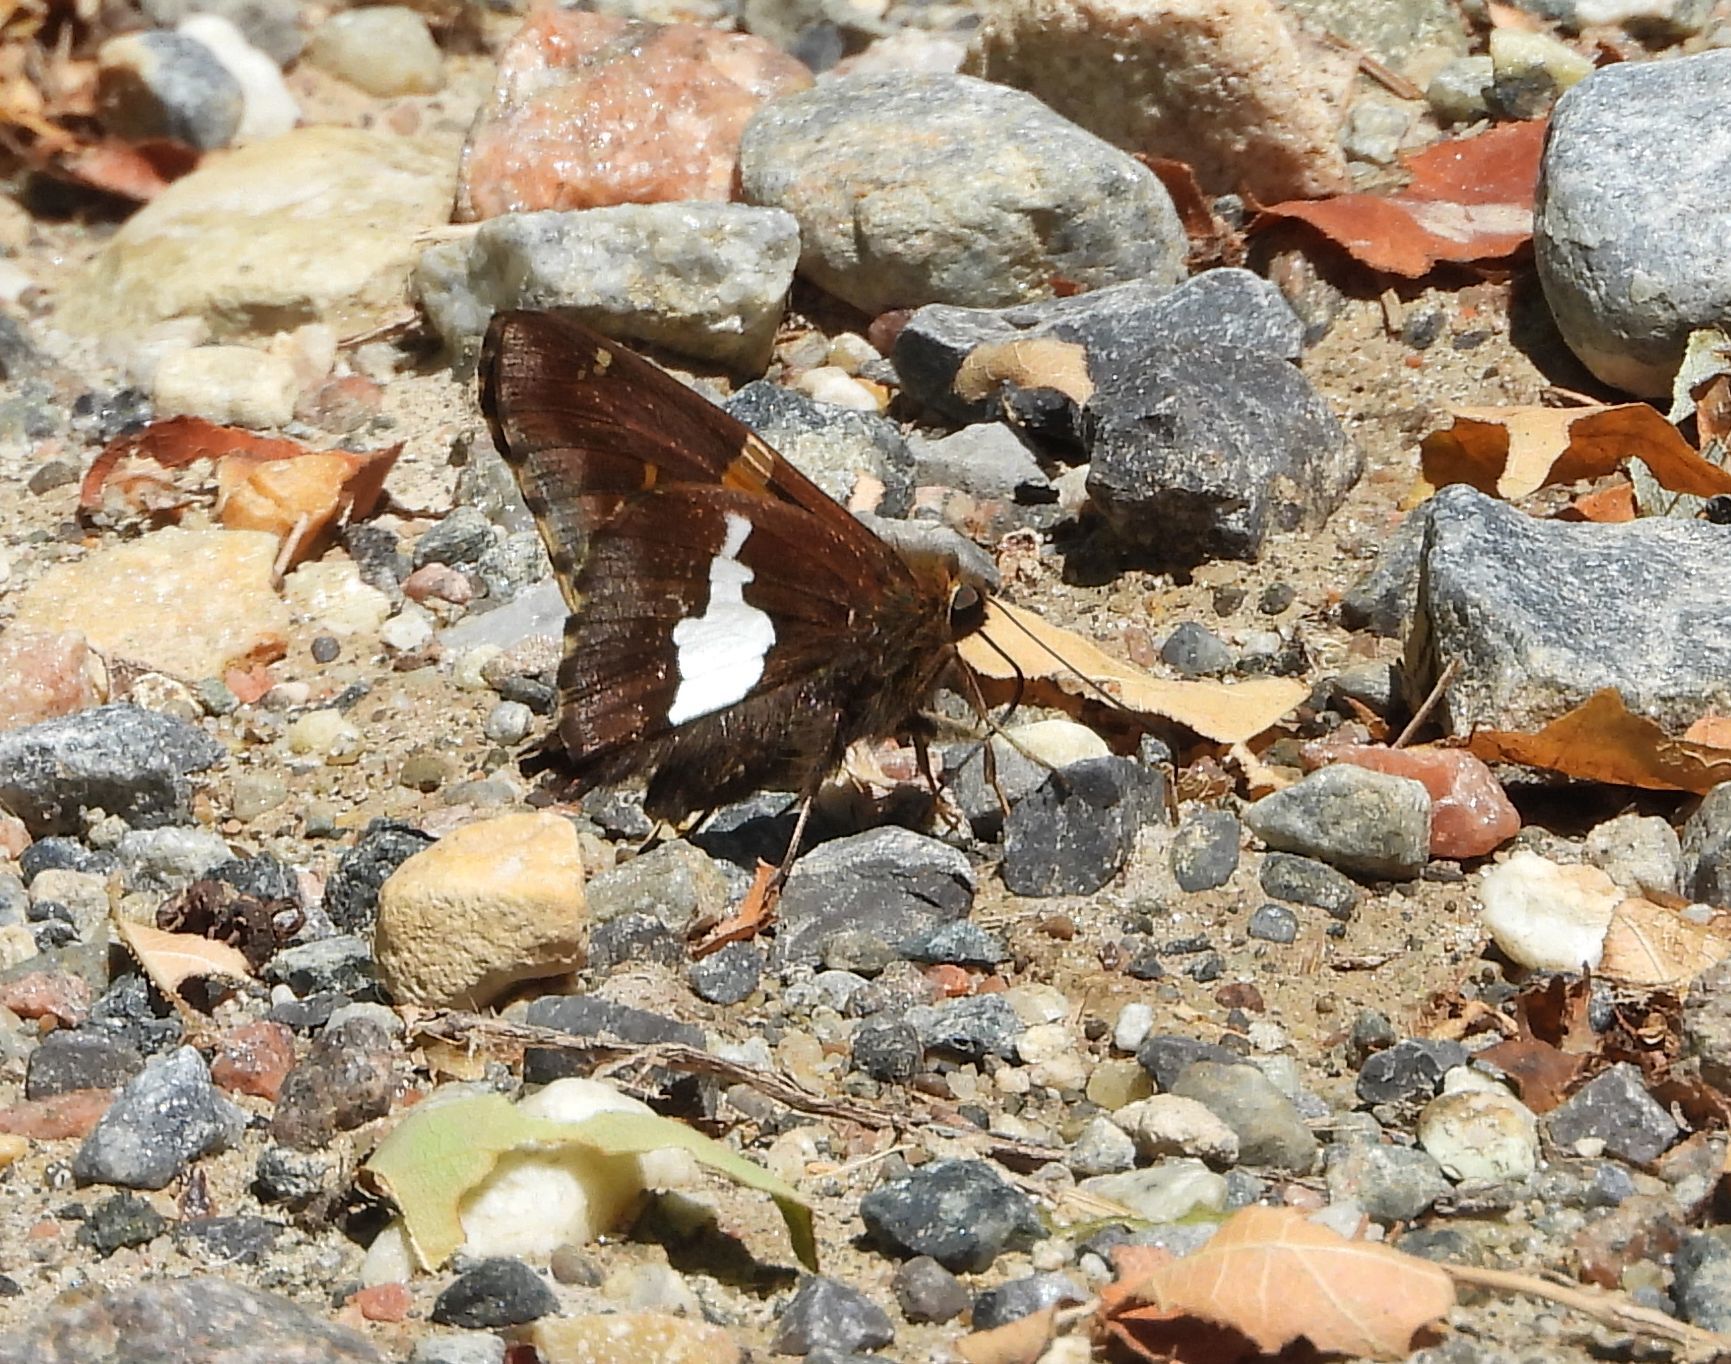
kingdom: Animalia
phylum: Arthropoda
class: Insecta
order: Lepidoptera
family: Hesperiidae
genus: Epargyreus
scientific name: Epargyreus clarus
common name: Silver-spotted skipper
